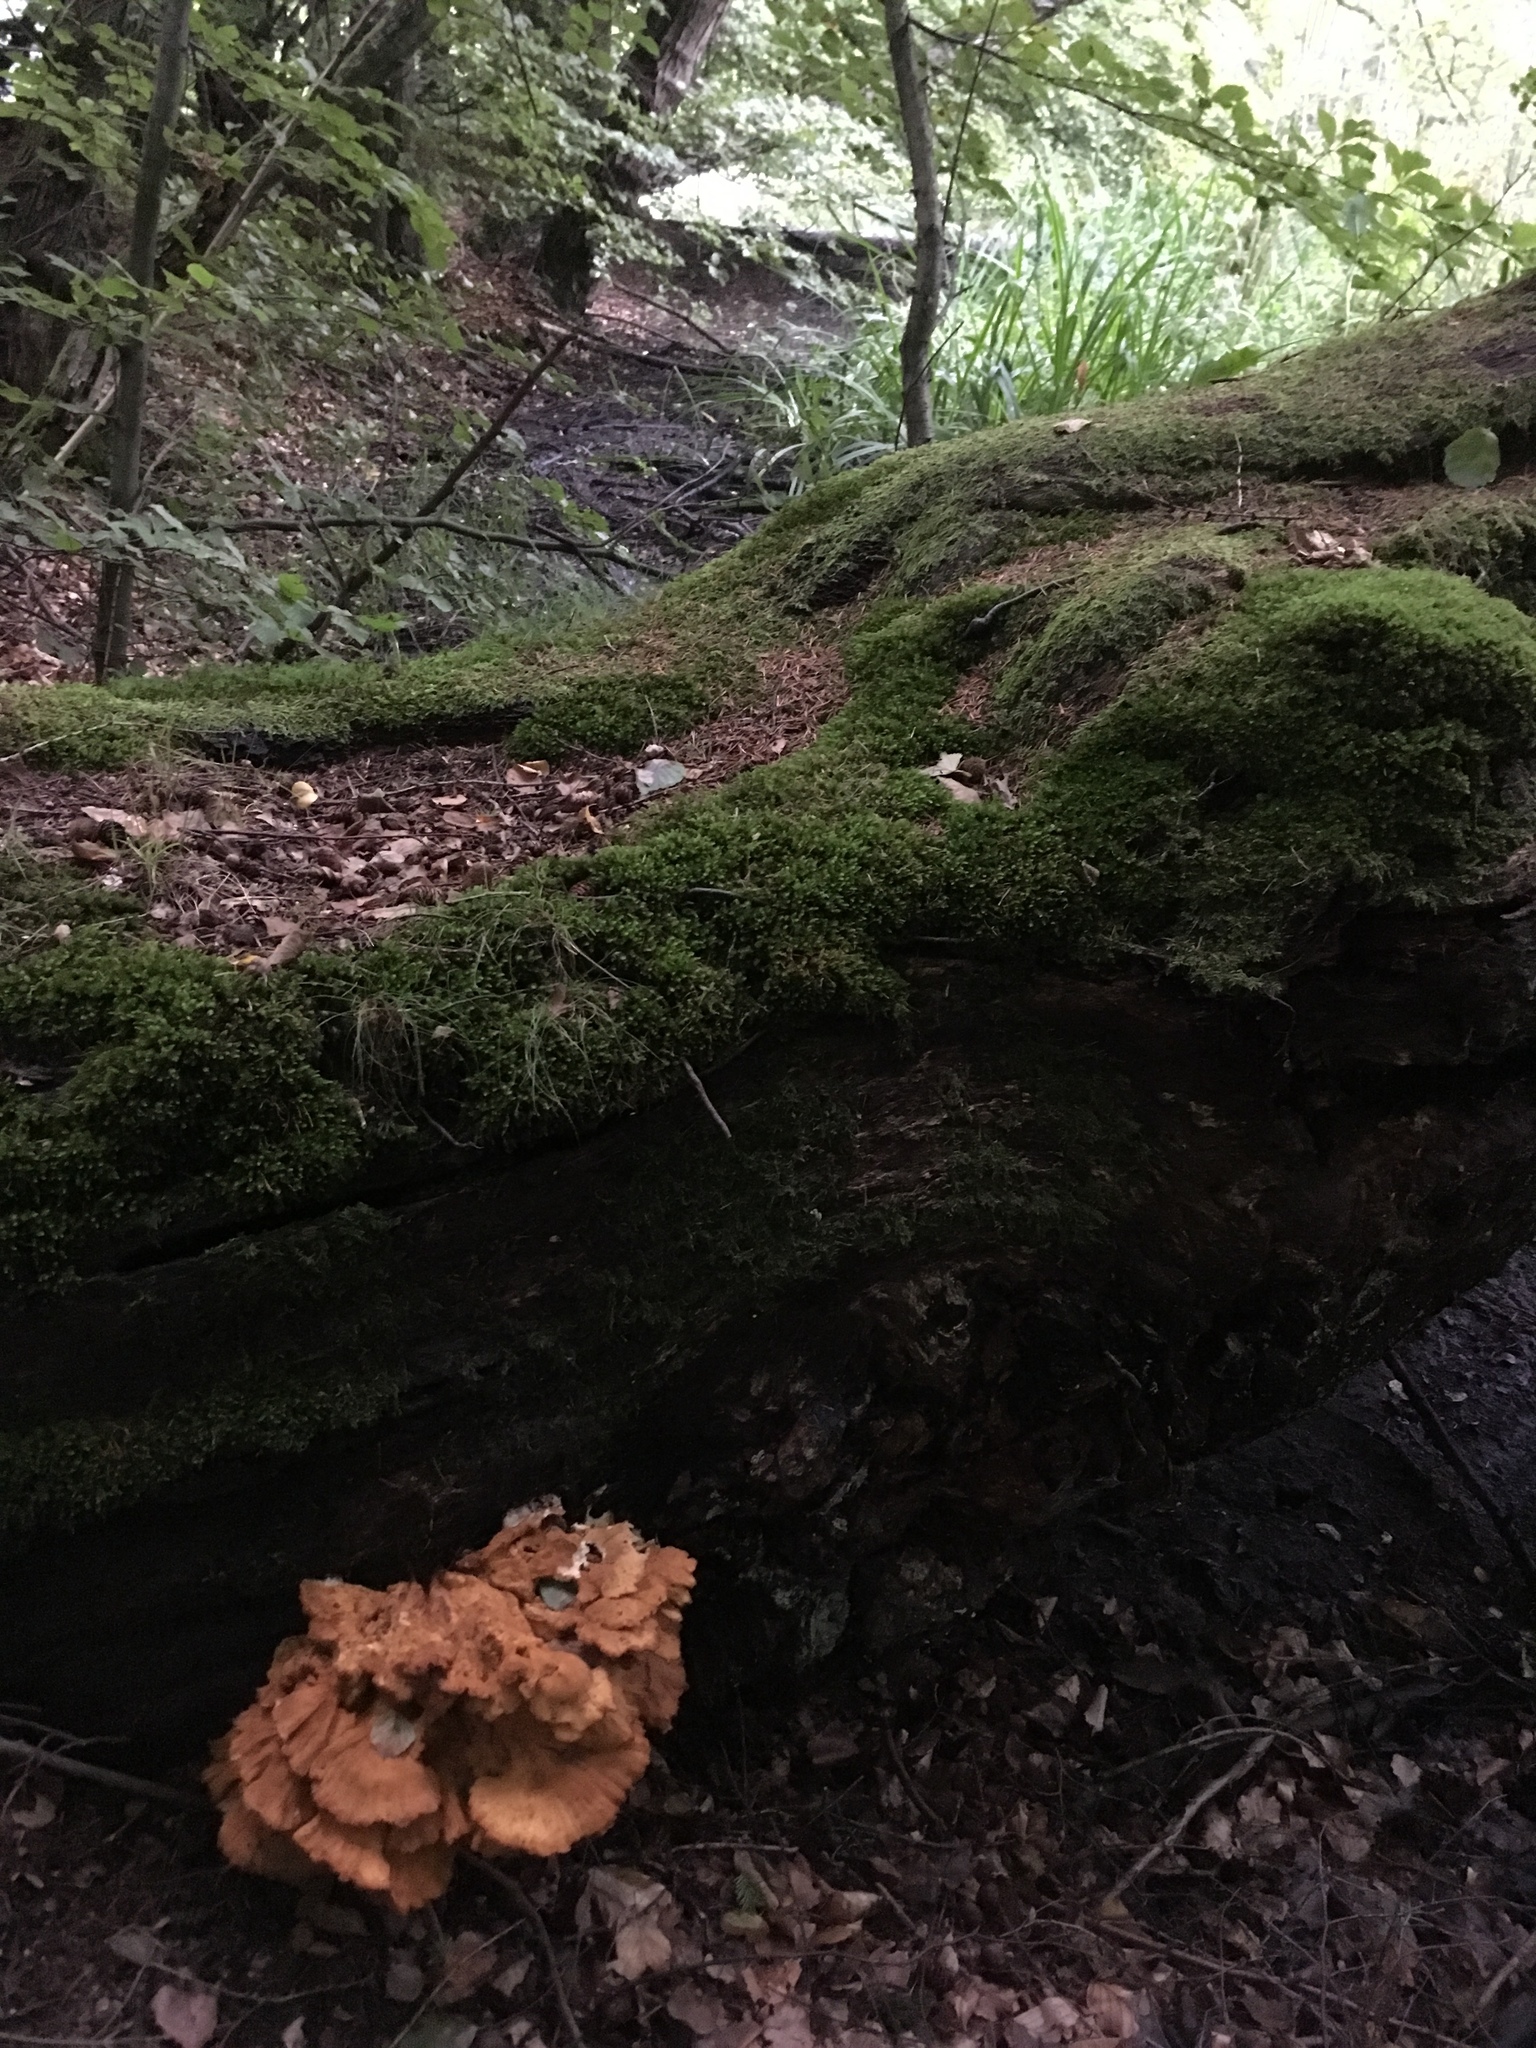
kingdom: Fungi
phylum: Basidiomycota
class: Agaricomycetes
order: Polyporales
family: Laetiporaceae
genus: Laetiporus
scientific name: Laetiporus sulphureus
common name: Chicken of the woods
